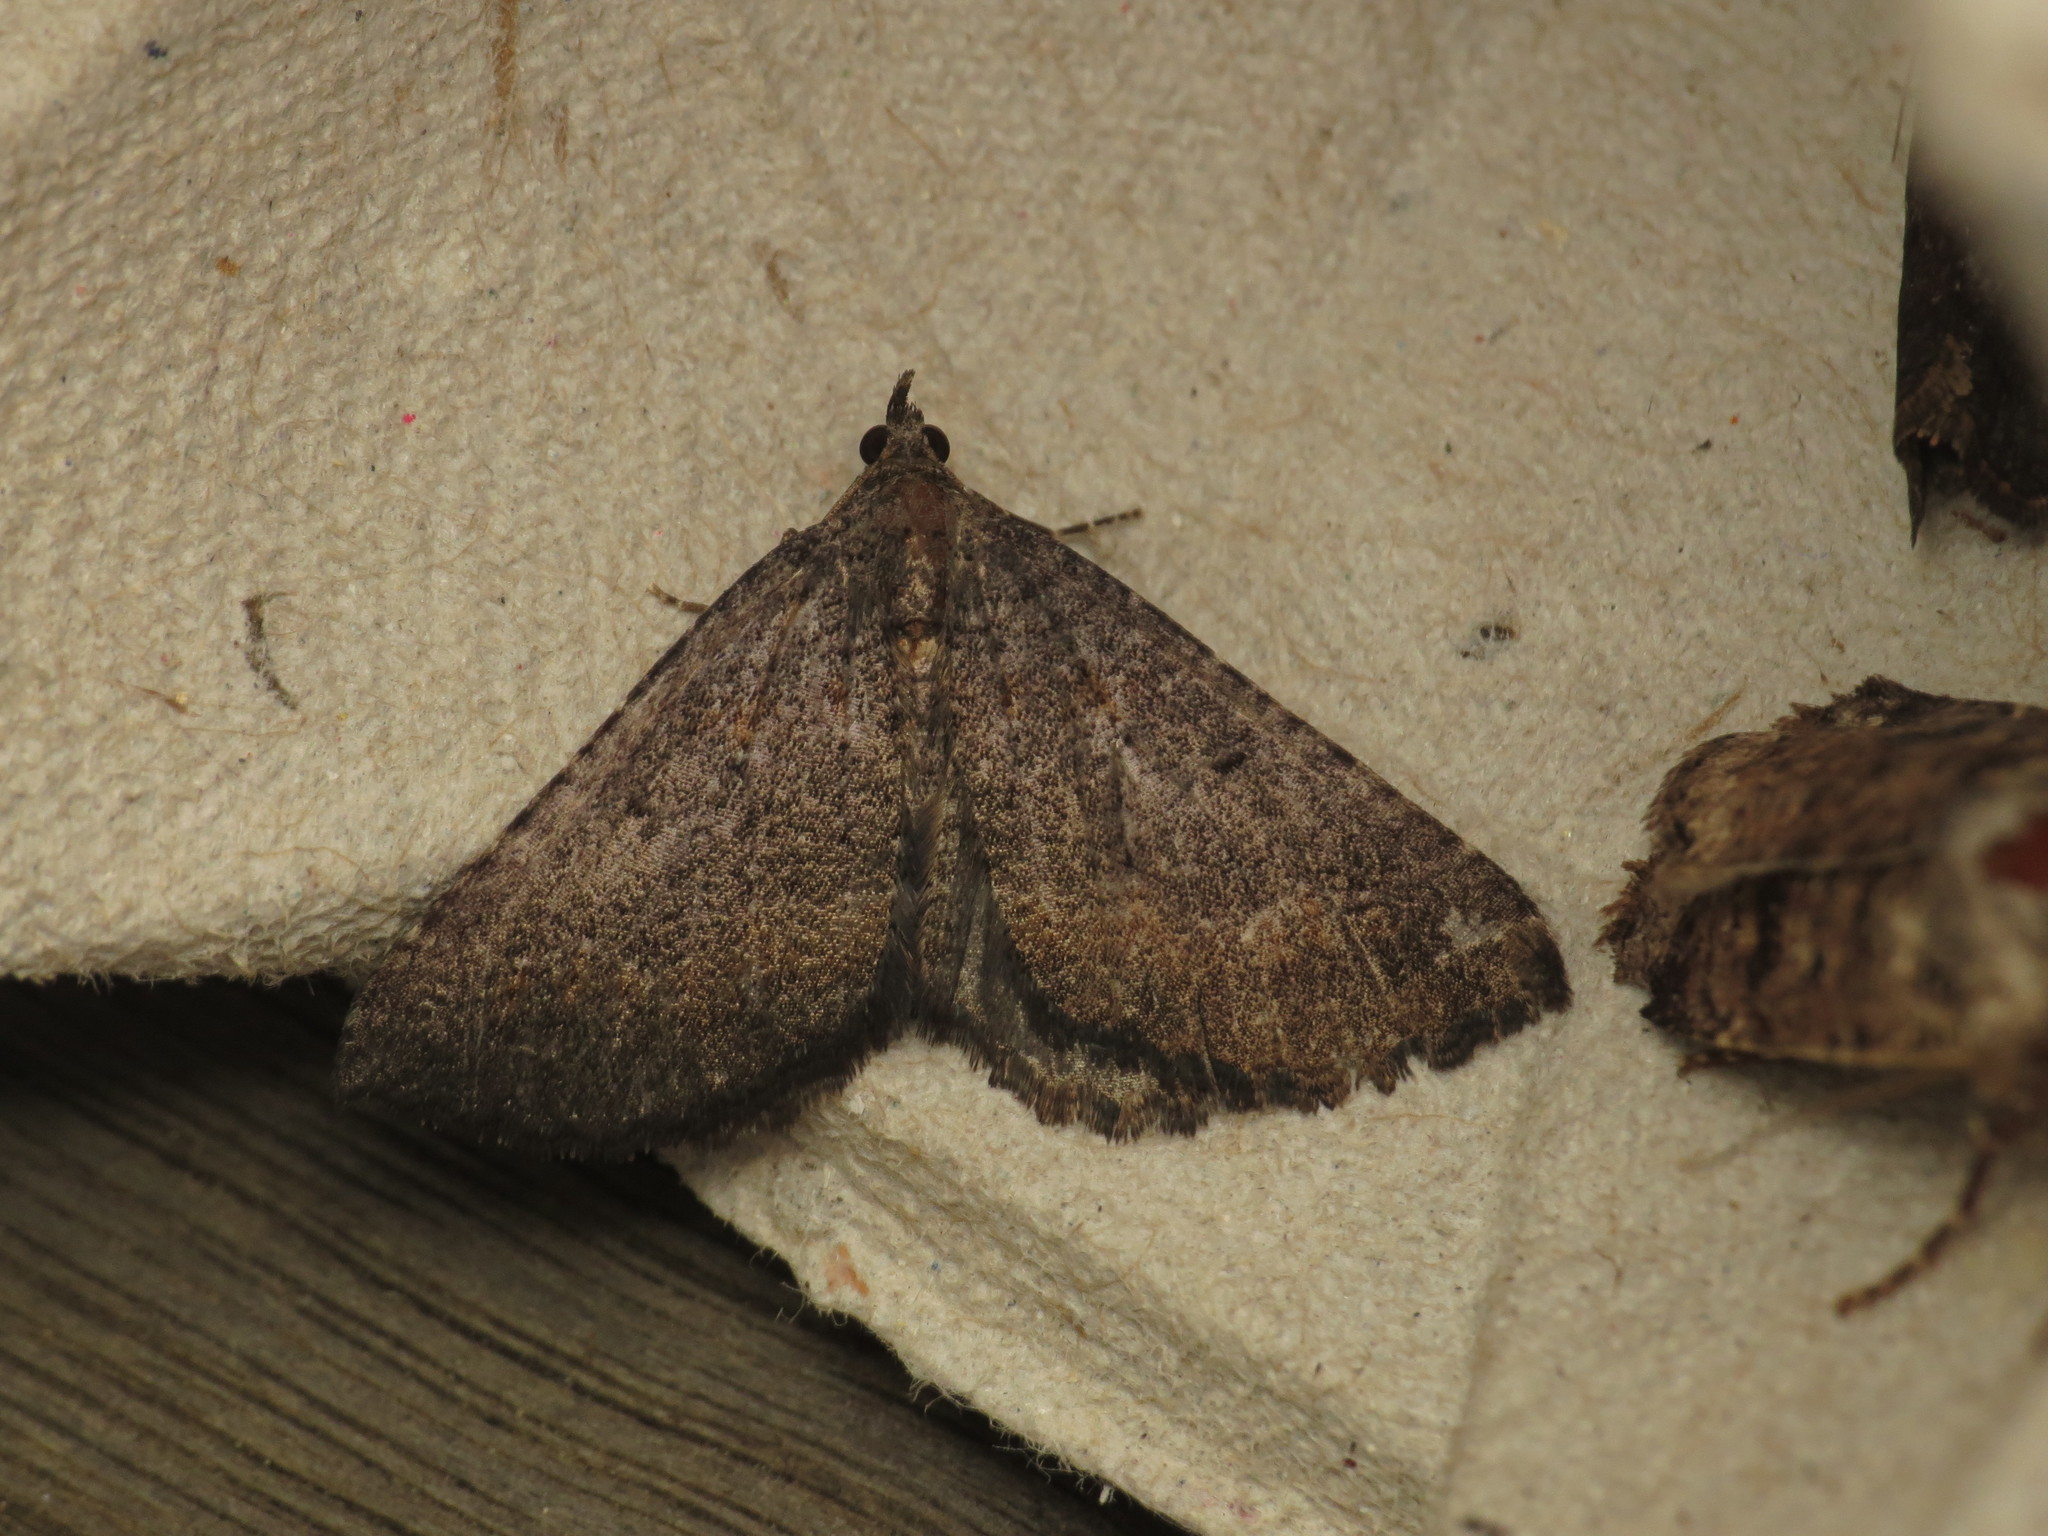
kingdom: Animalia
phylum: Arthropoda
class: Insecta
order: Lepidoptera
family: Geometridae
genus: Chrysolarentia
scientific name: Chrysolarentia trygodes
